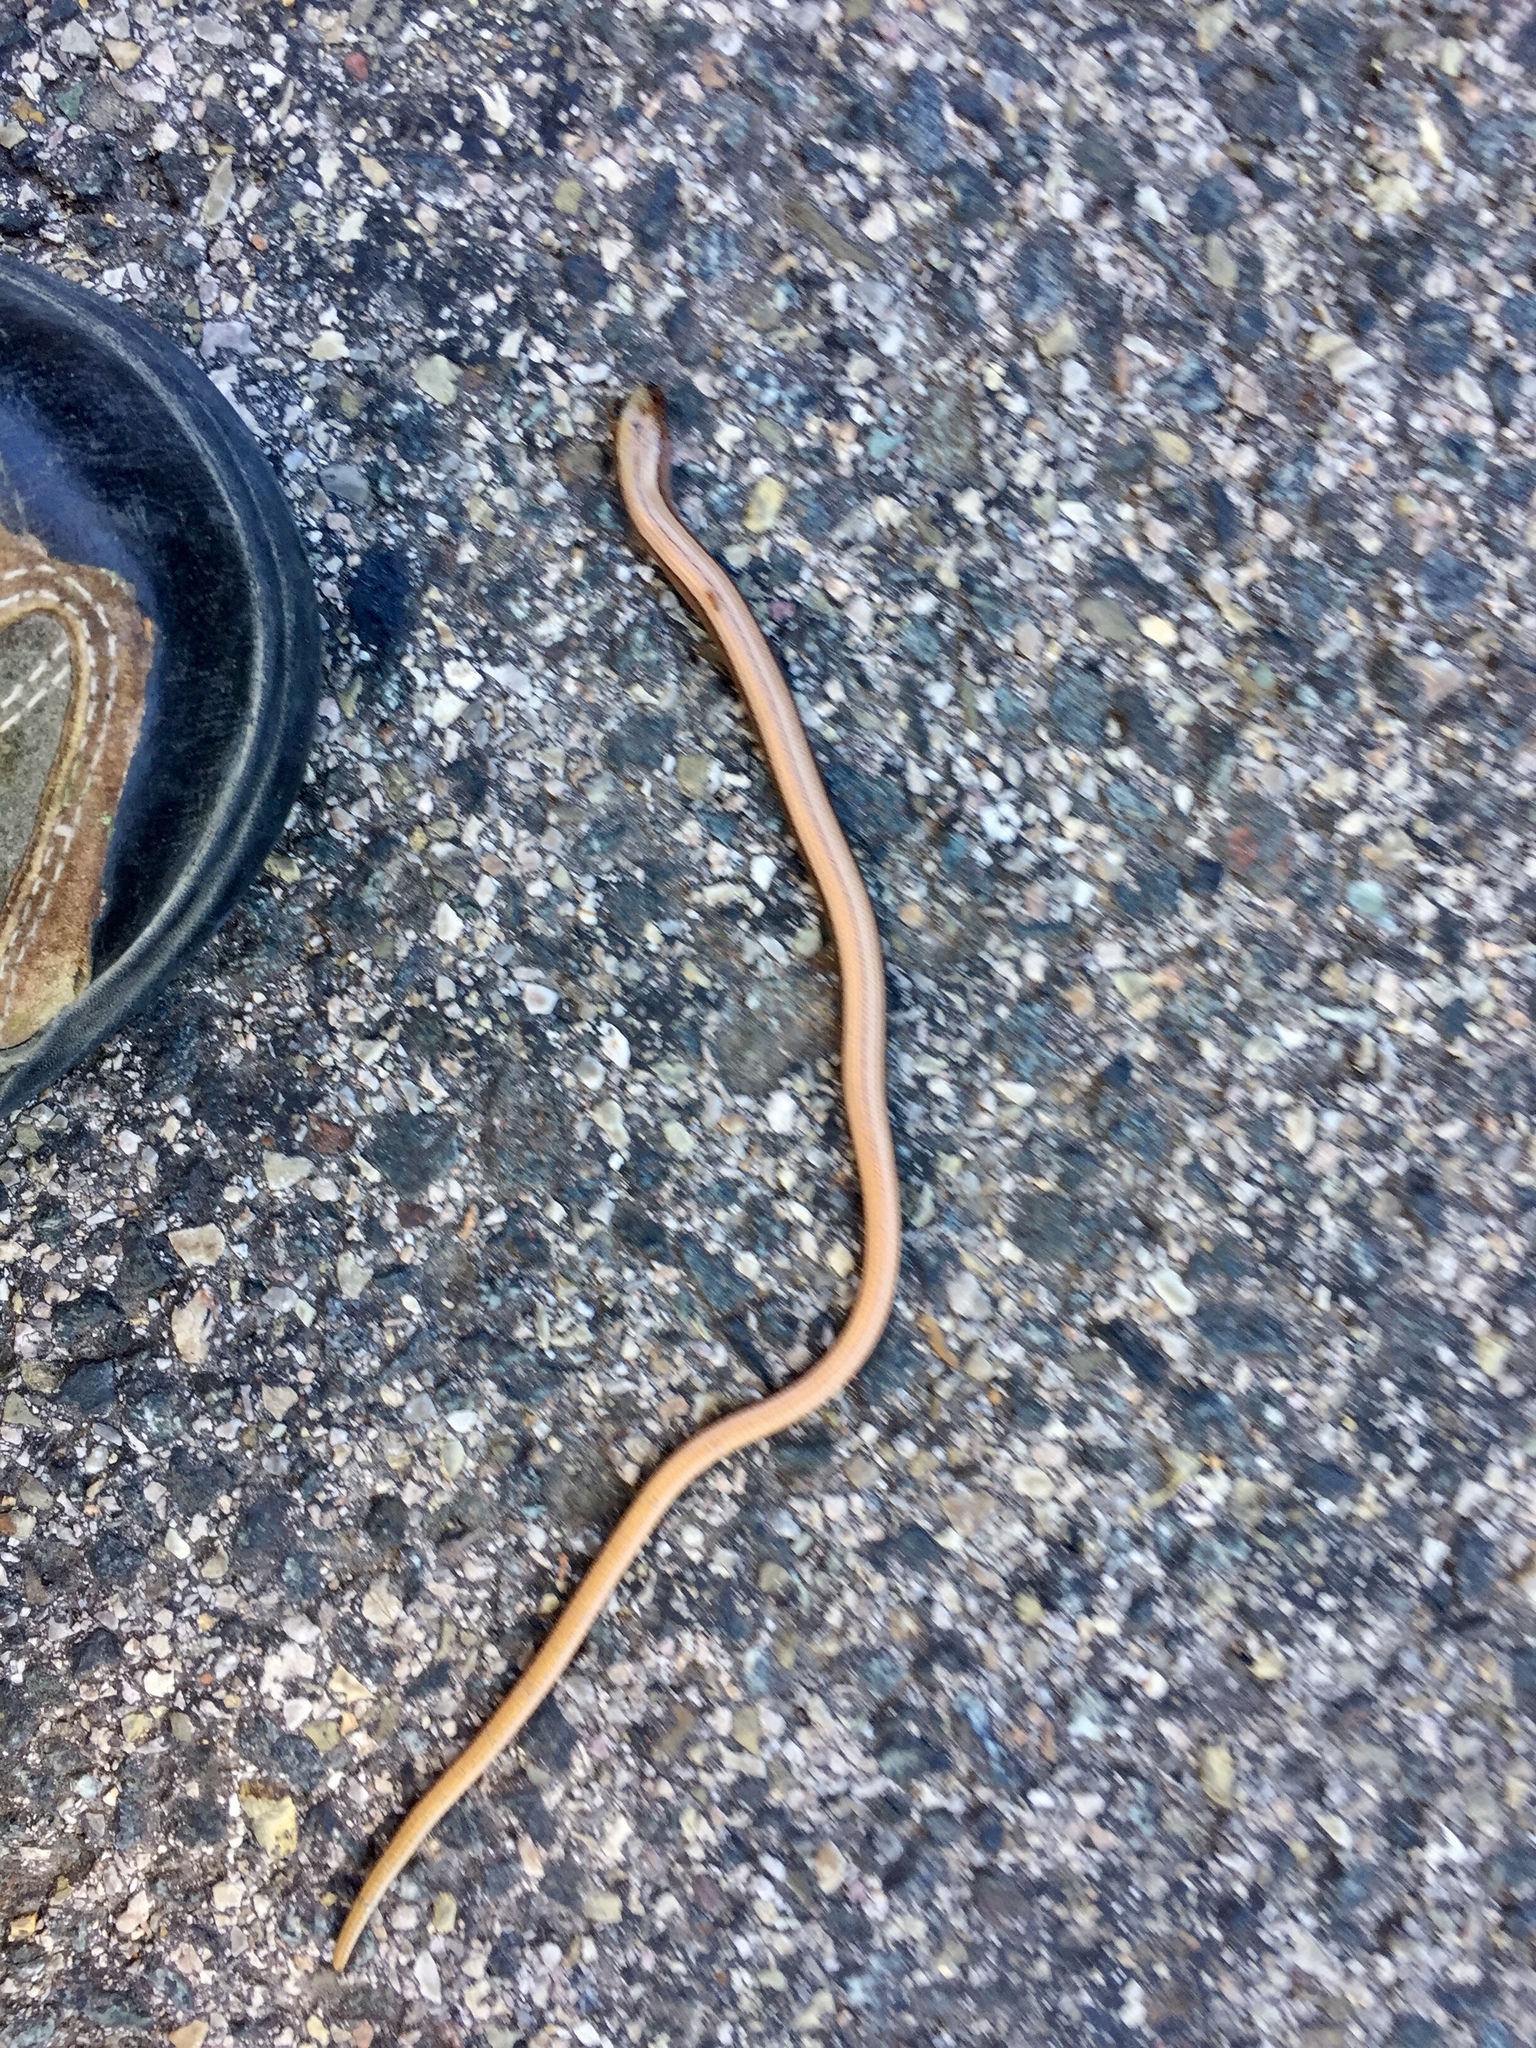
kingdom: Animalia
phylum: Chordata
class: Squamata
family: Anguidae
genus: Anguis
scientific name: Anguis veronensis
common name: Italian slow worm
